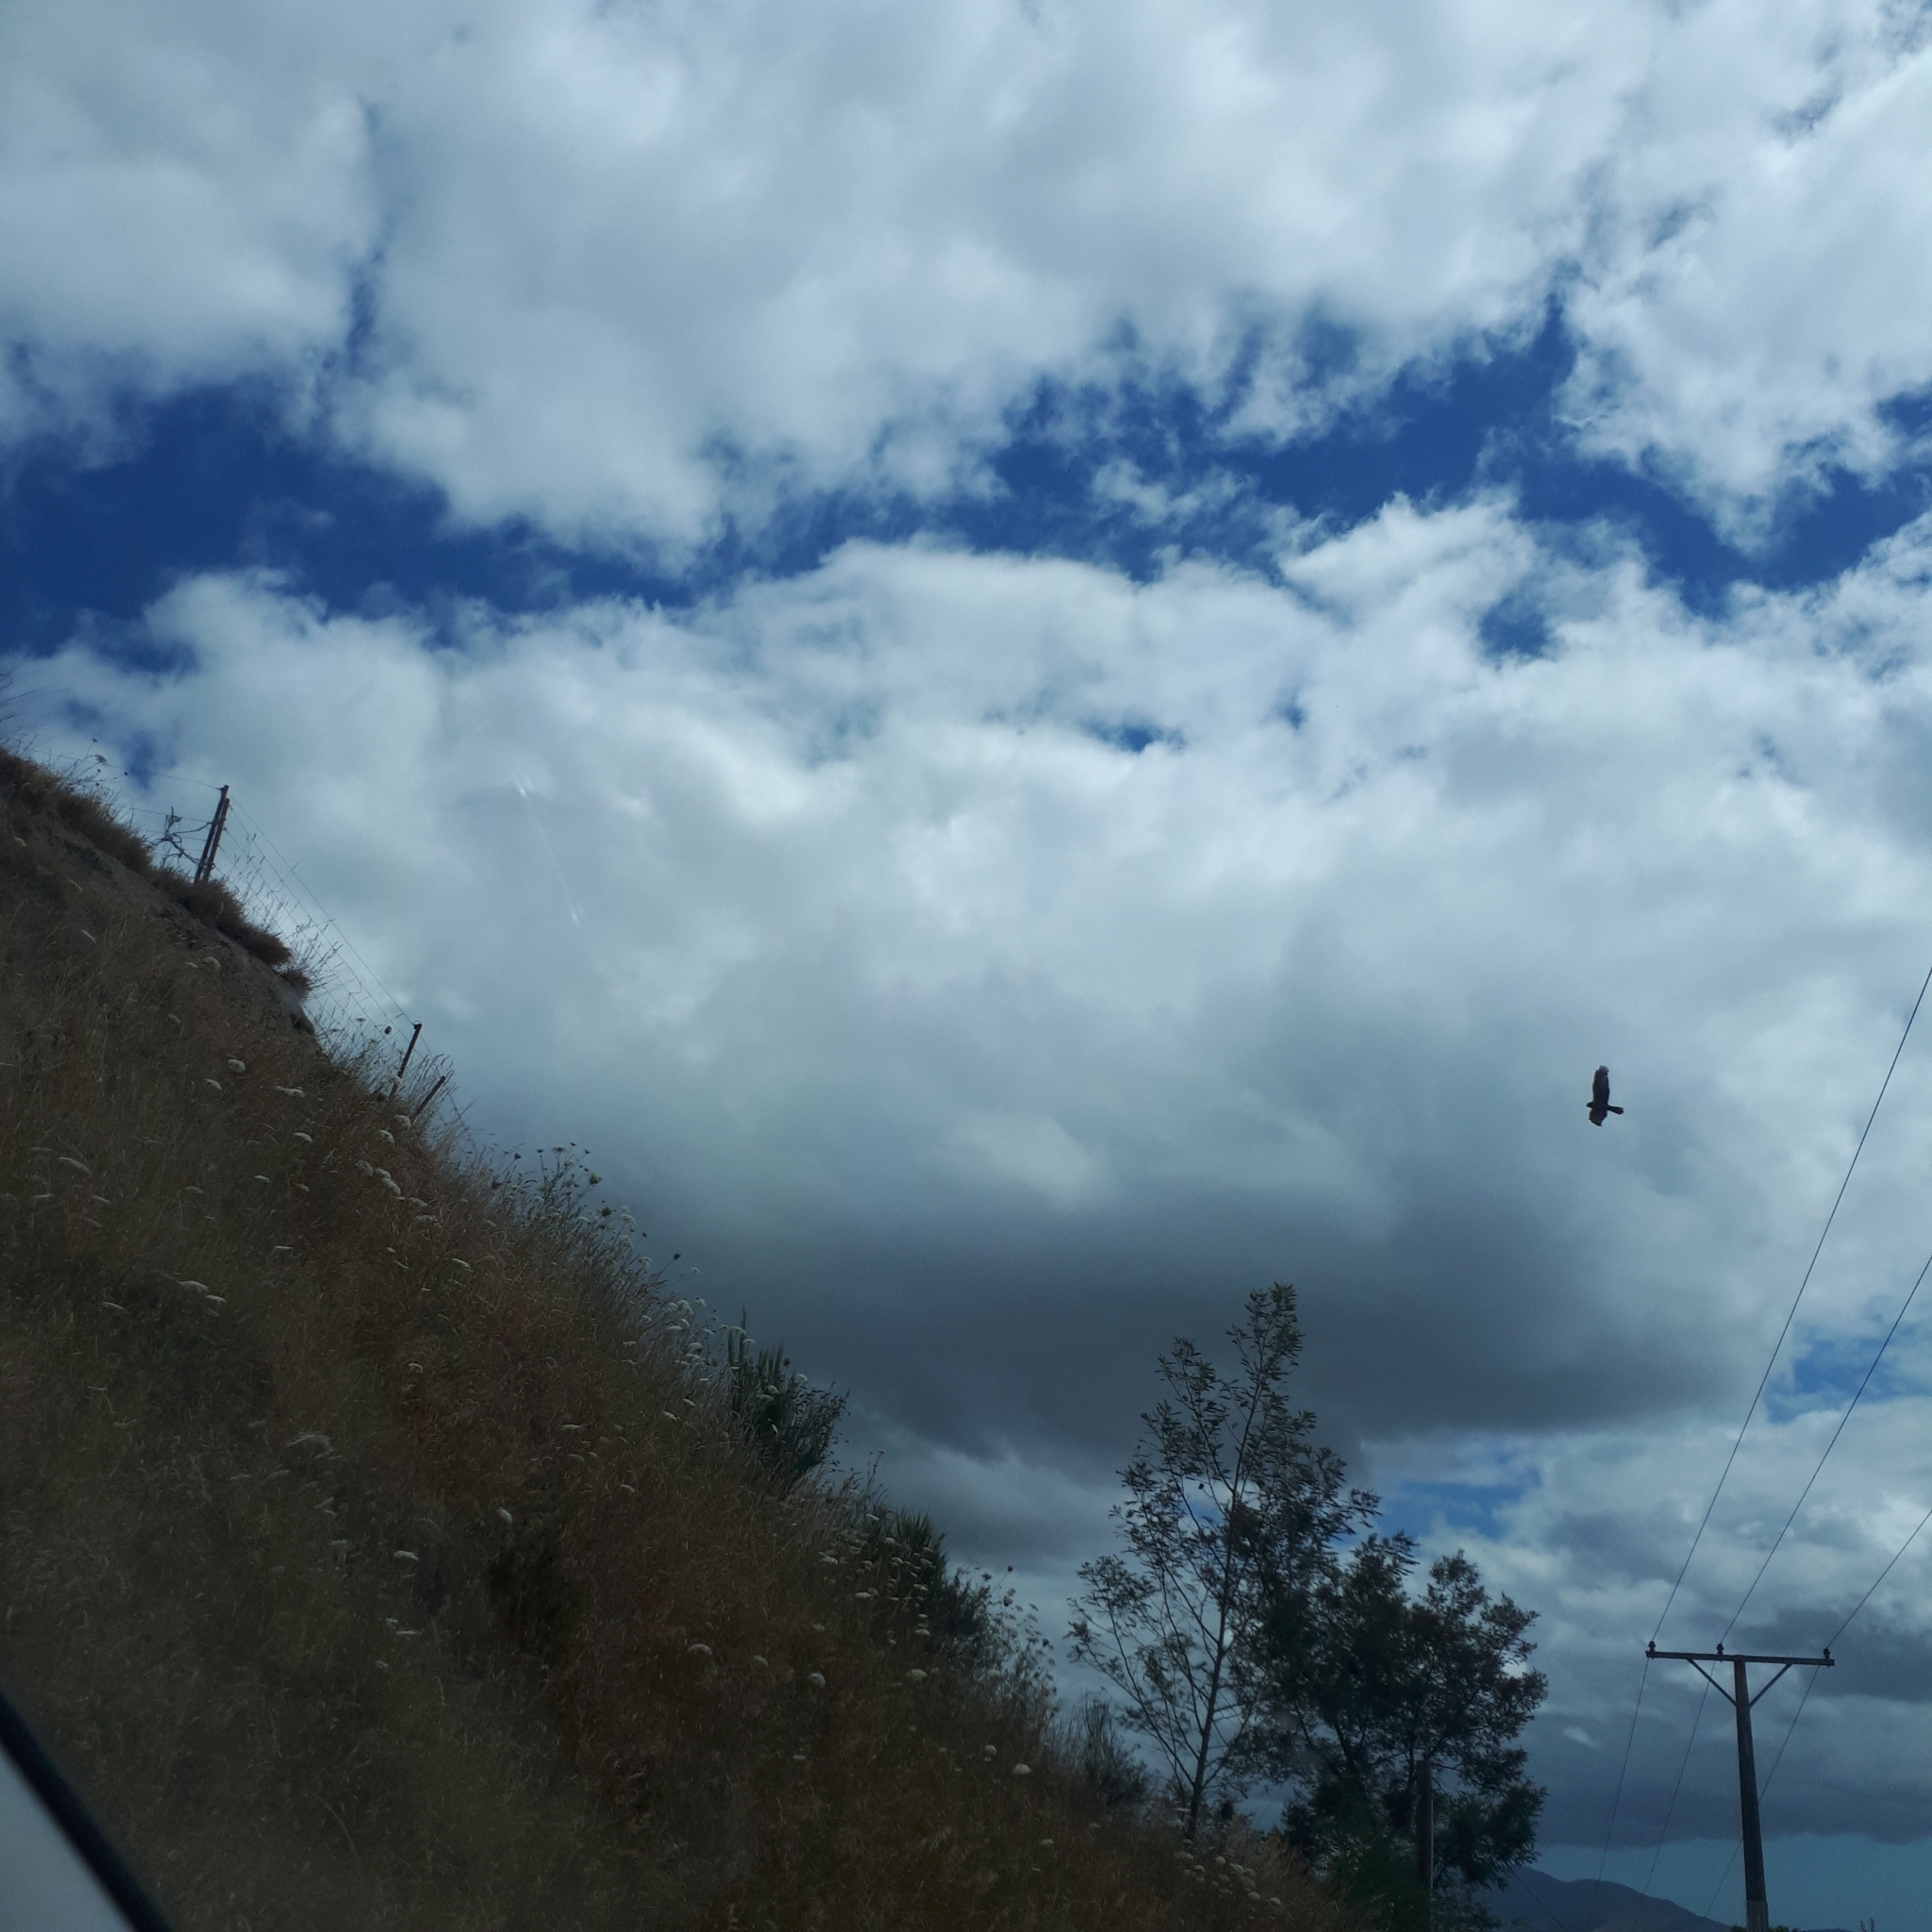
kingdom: Animalia
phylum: Chordata
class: Aves
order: Accipitriformes
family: Accipitridae
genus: Circus
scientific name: Circus approximans
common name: Swamp harrier
